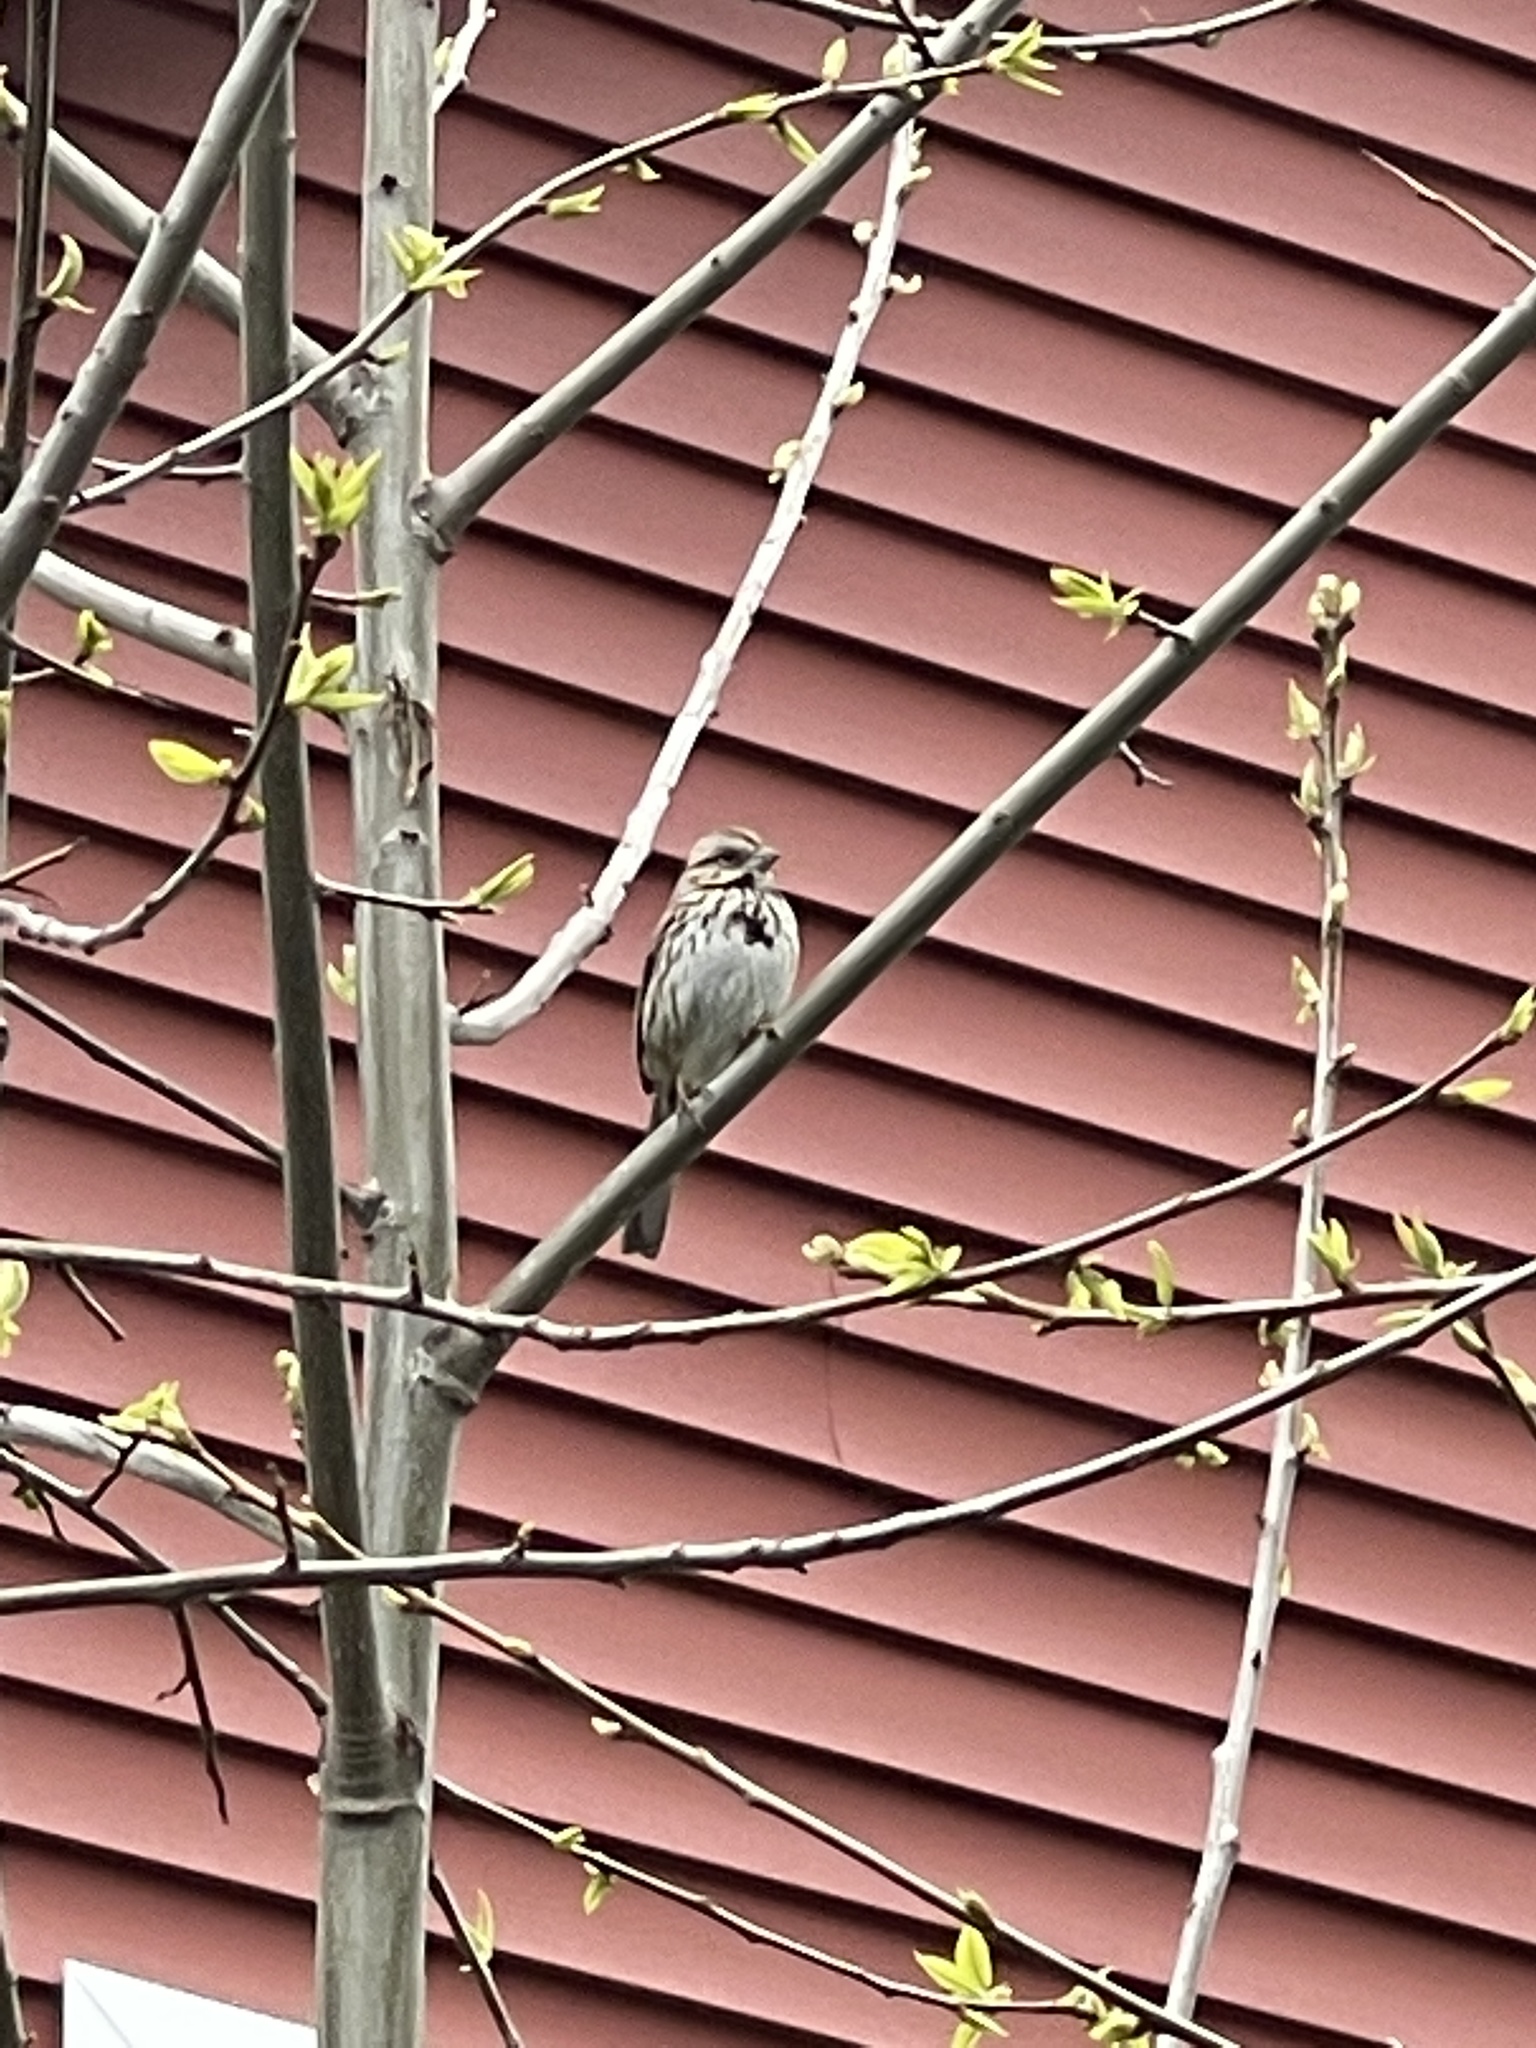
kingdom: Animalia
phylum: Chordata
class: Aves
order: Passeriformes
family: Passerellidae
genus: Melospiza
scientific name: Melospiza melodia
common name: Song sparrow
